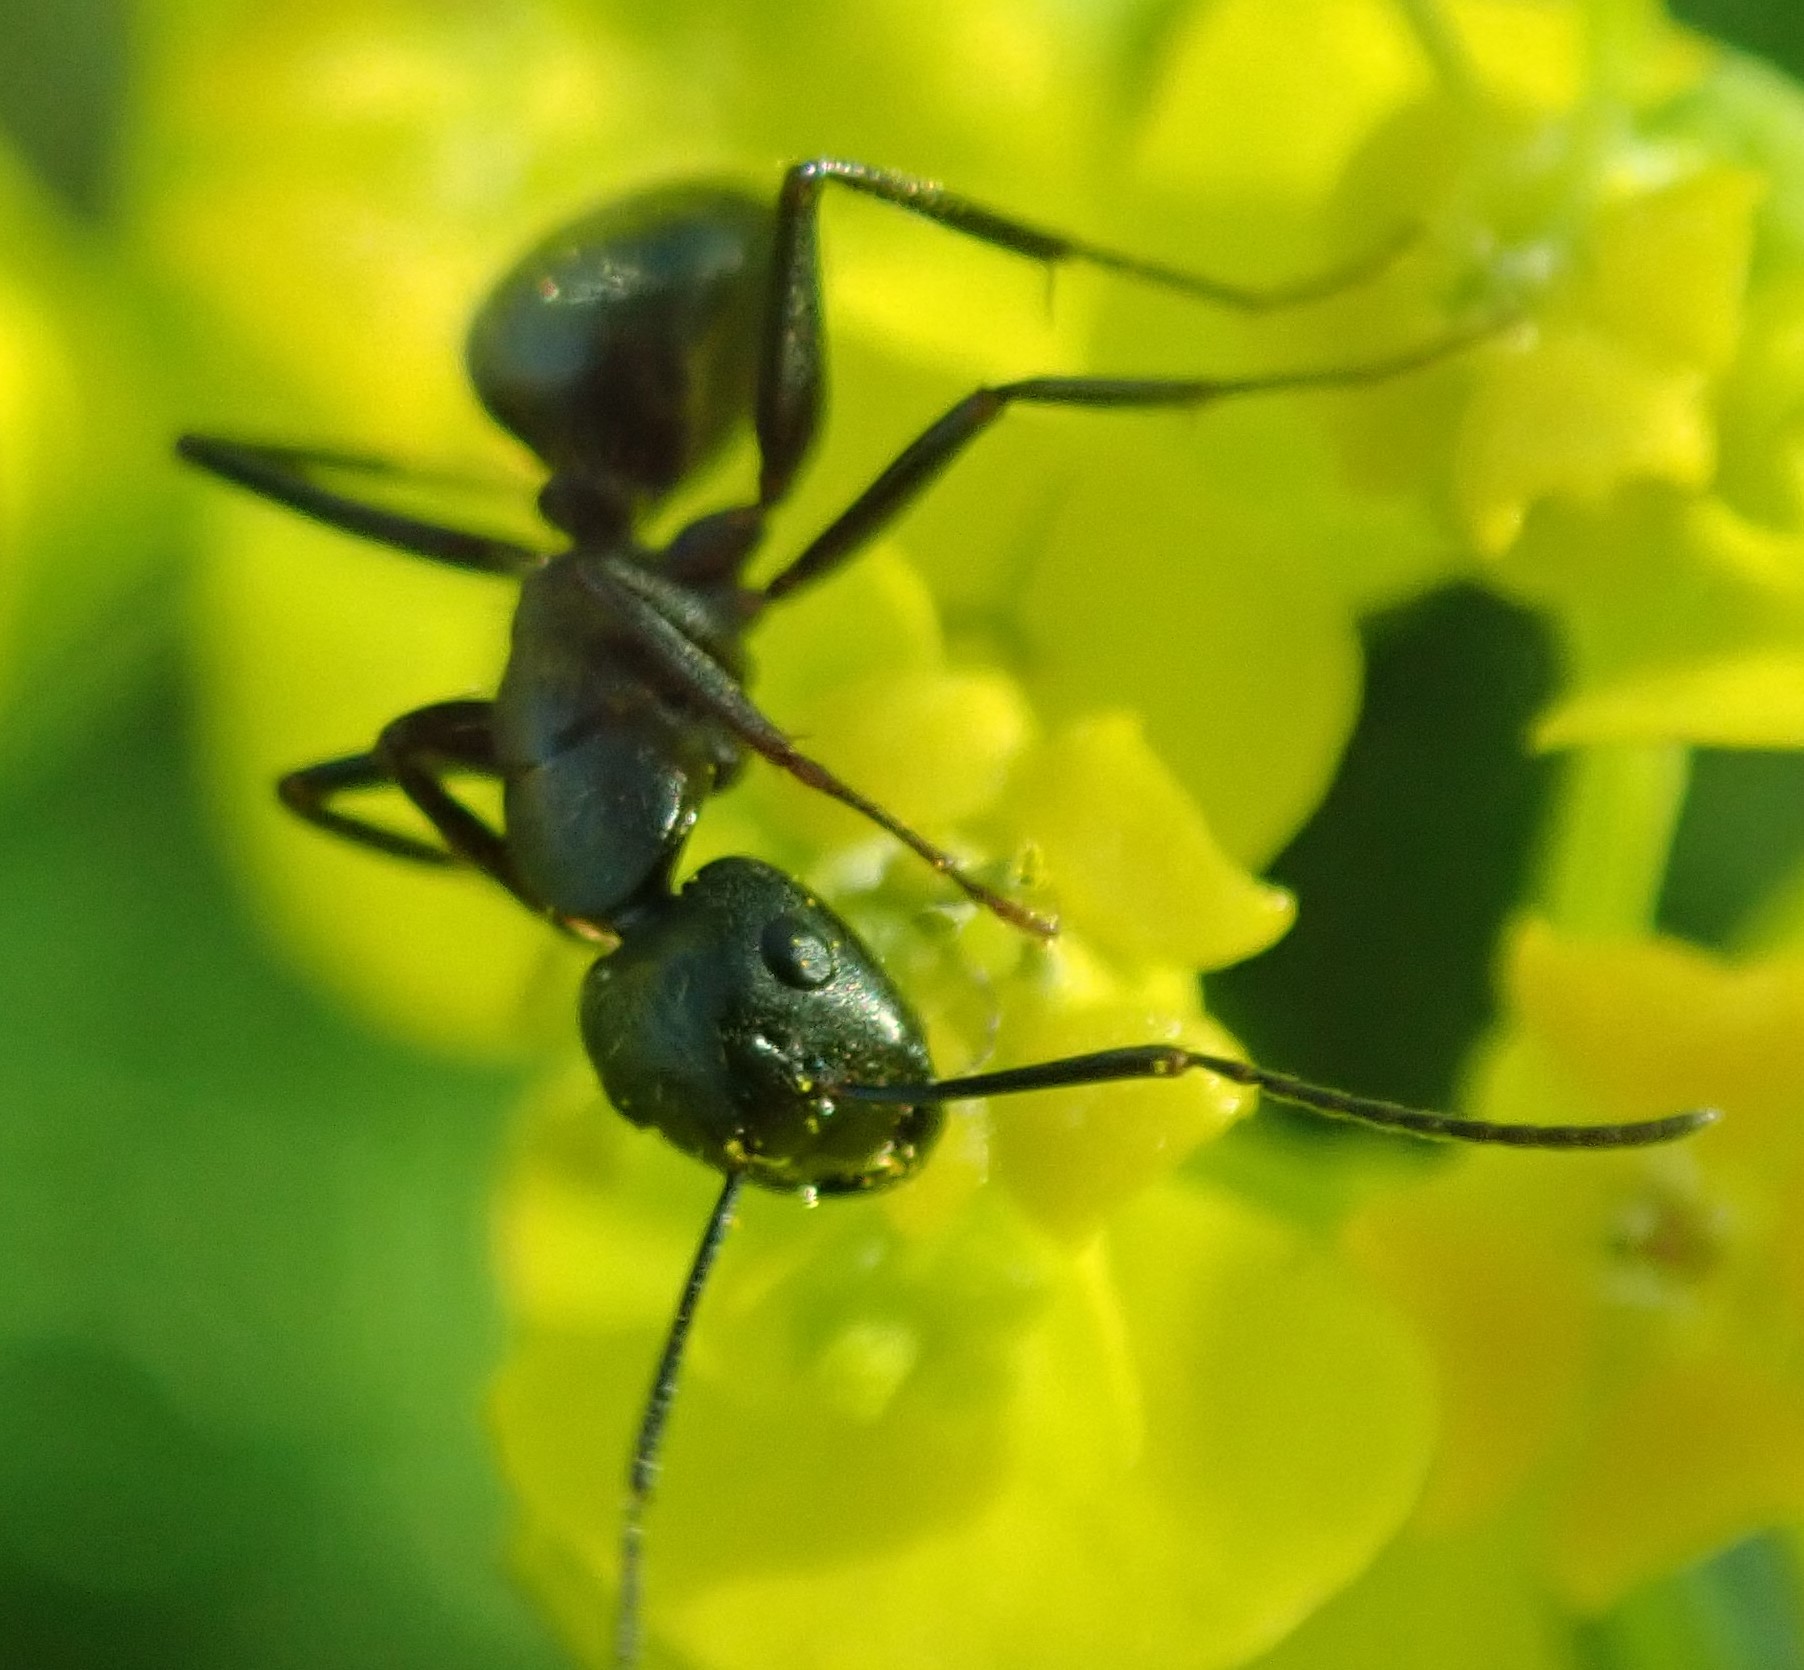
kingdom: Animalia
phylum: Arthropoda
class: Insecta
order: Hymenoptera
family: Formicidae
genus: Camponotus
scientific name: Camponotus pennsylvanicus
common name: Black carpenter ant
